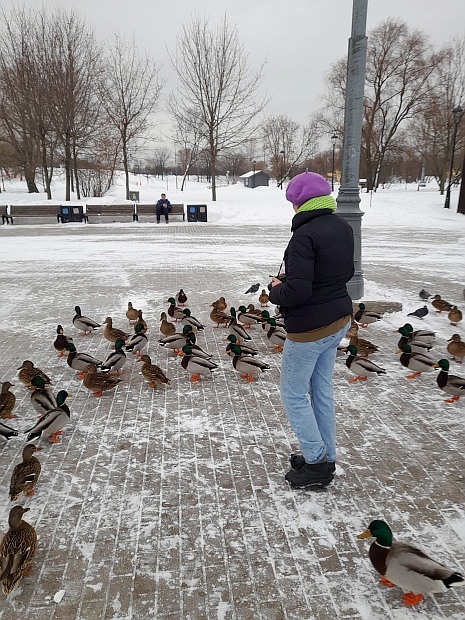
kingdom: Animalia
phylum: Chordata
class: Aves
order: Anseriformes
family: Anatidae
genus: Anas
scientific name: Anas platyrhynchos
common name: Mallard
